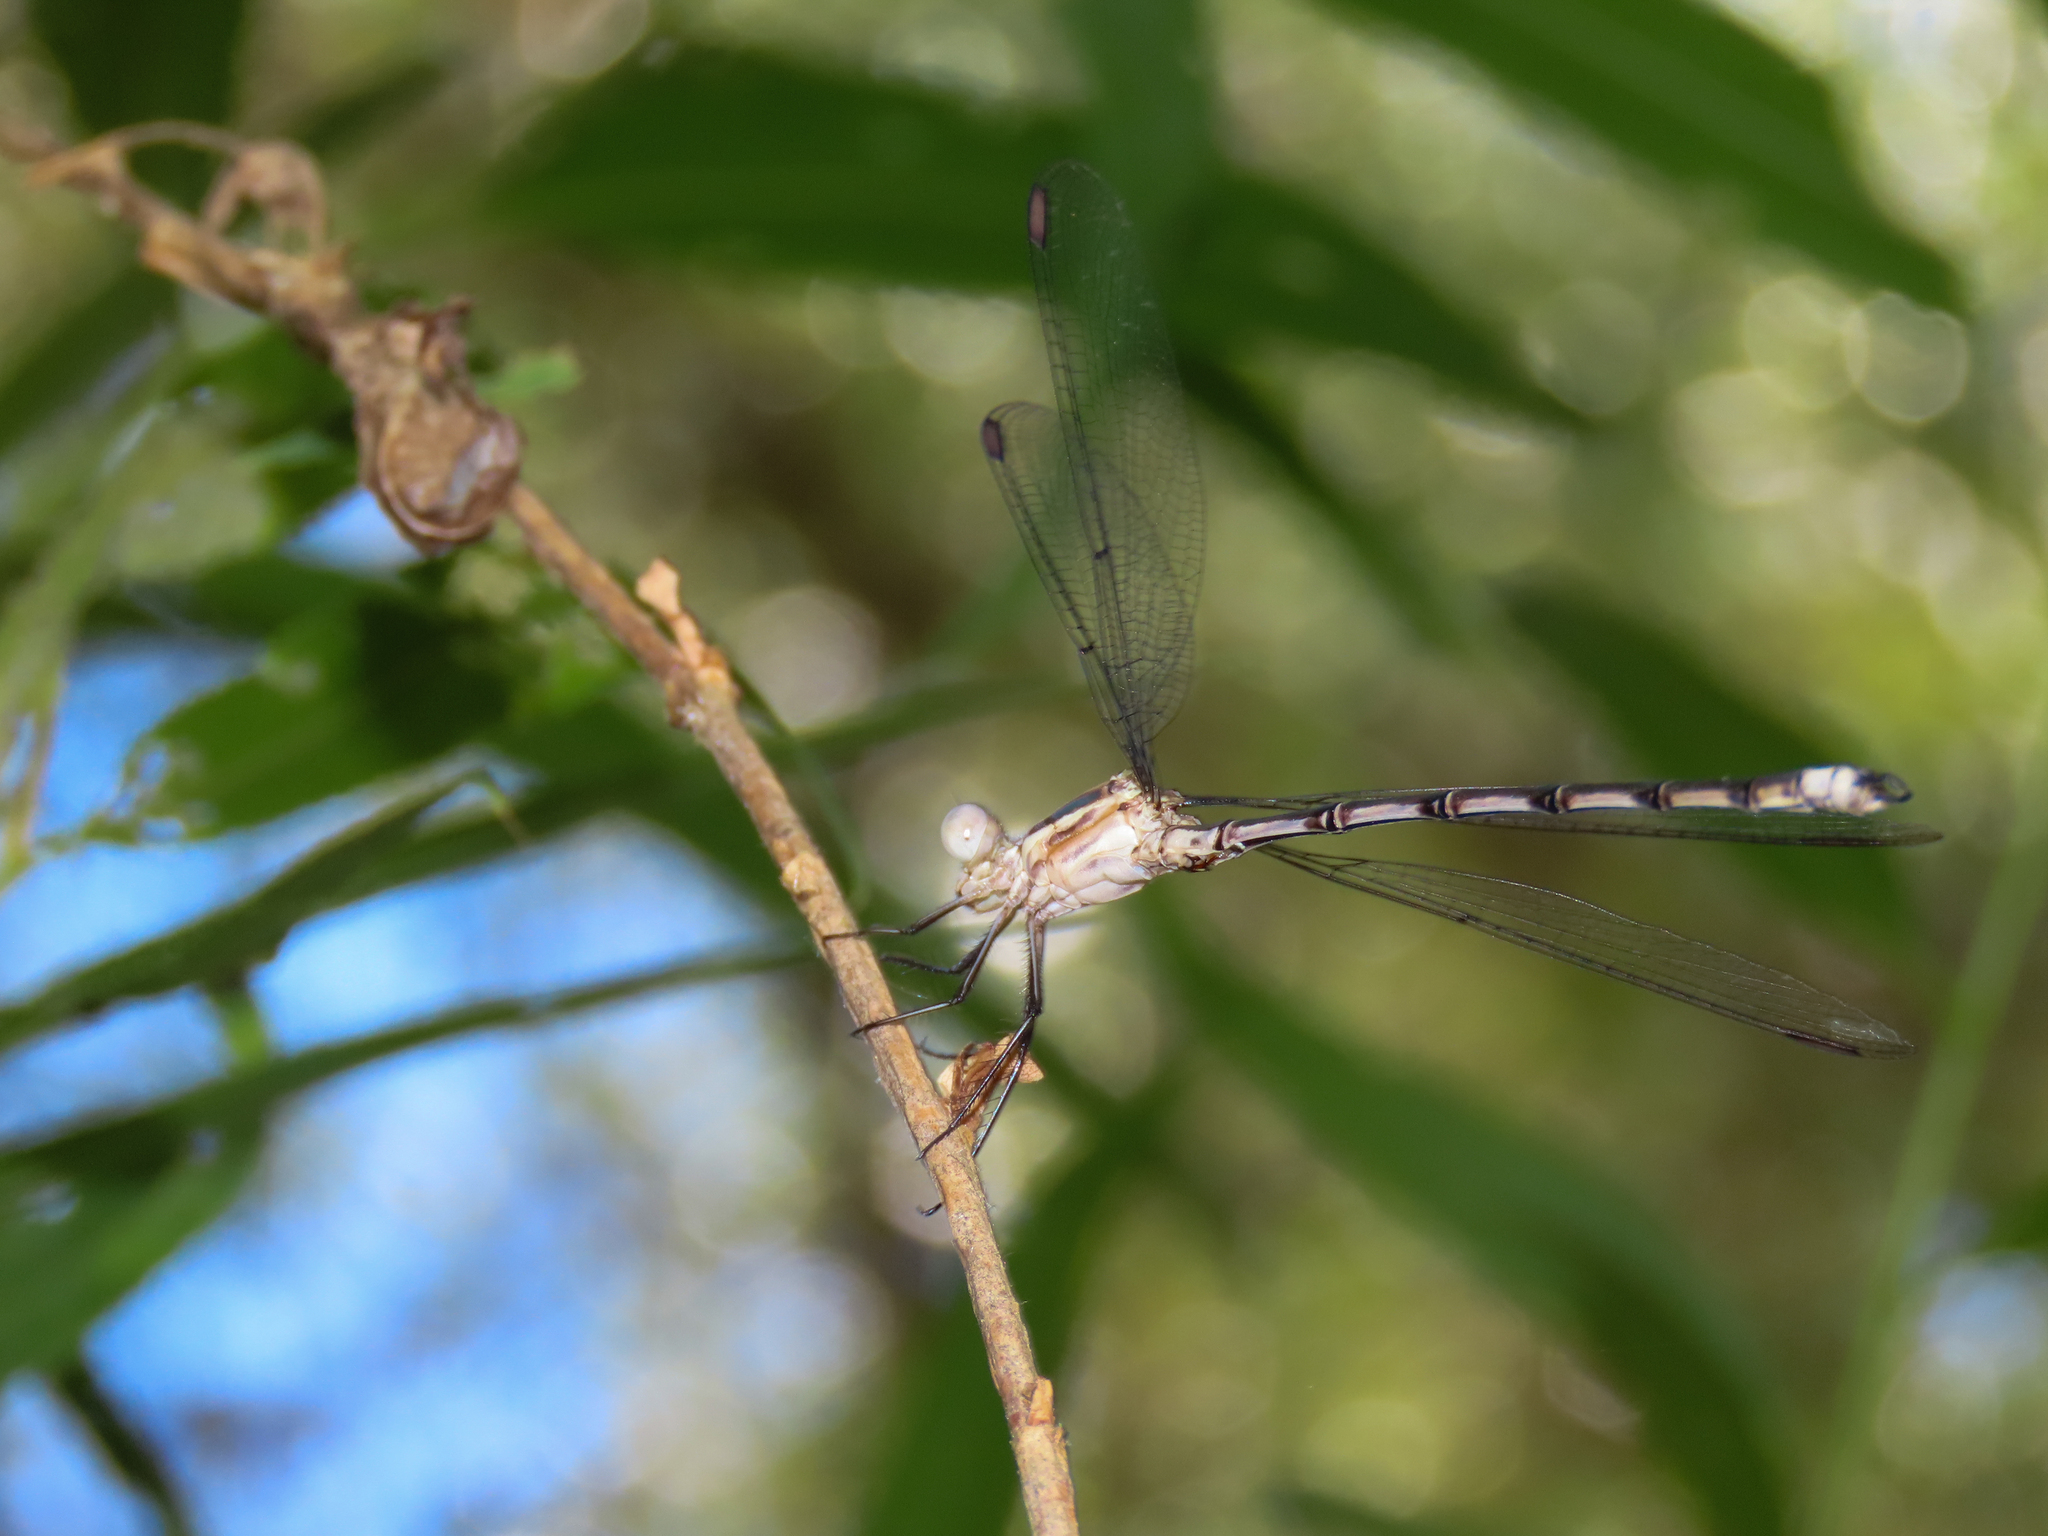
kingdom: Animalia
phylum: Arthropoda
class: Insecta
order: Odonata
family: Lestidae
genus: Archilestes
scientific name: Archilestes grandis
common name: Great spreadwing
